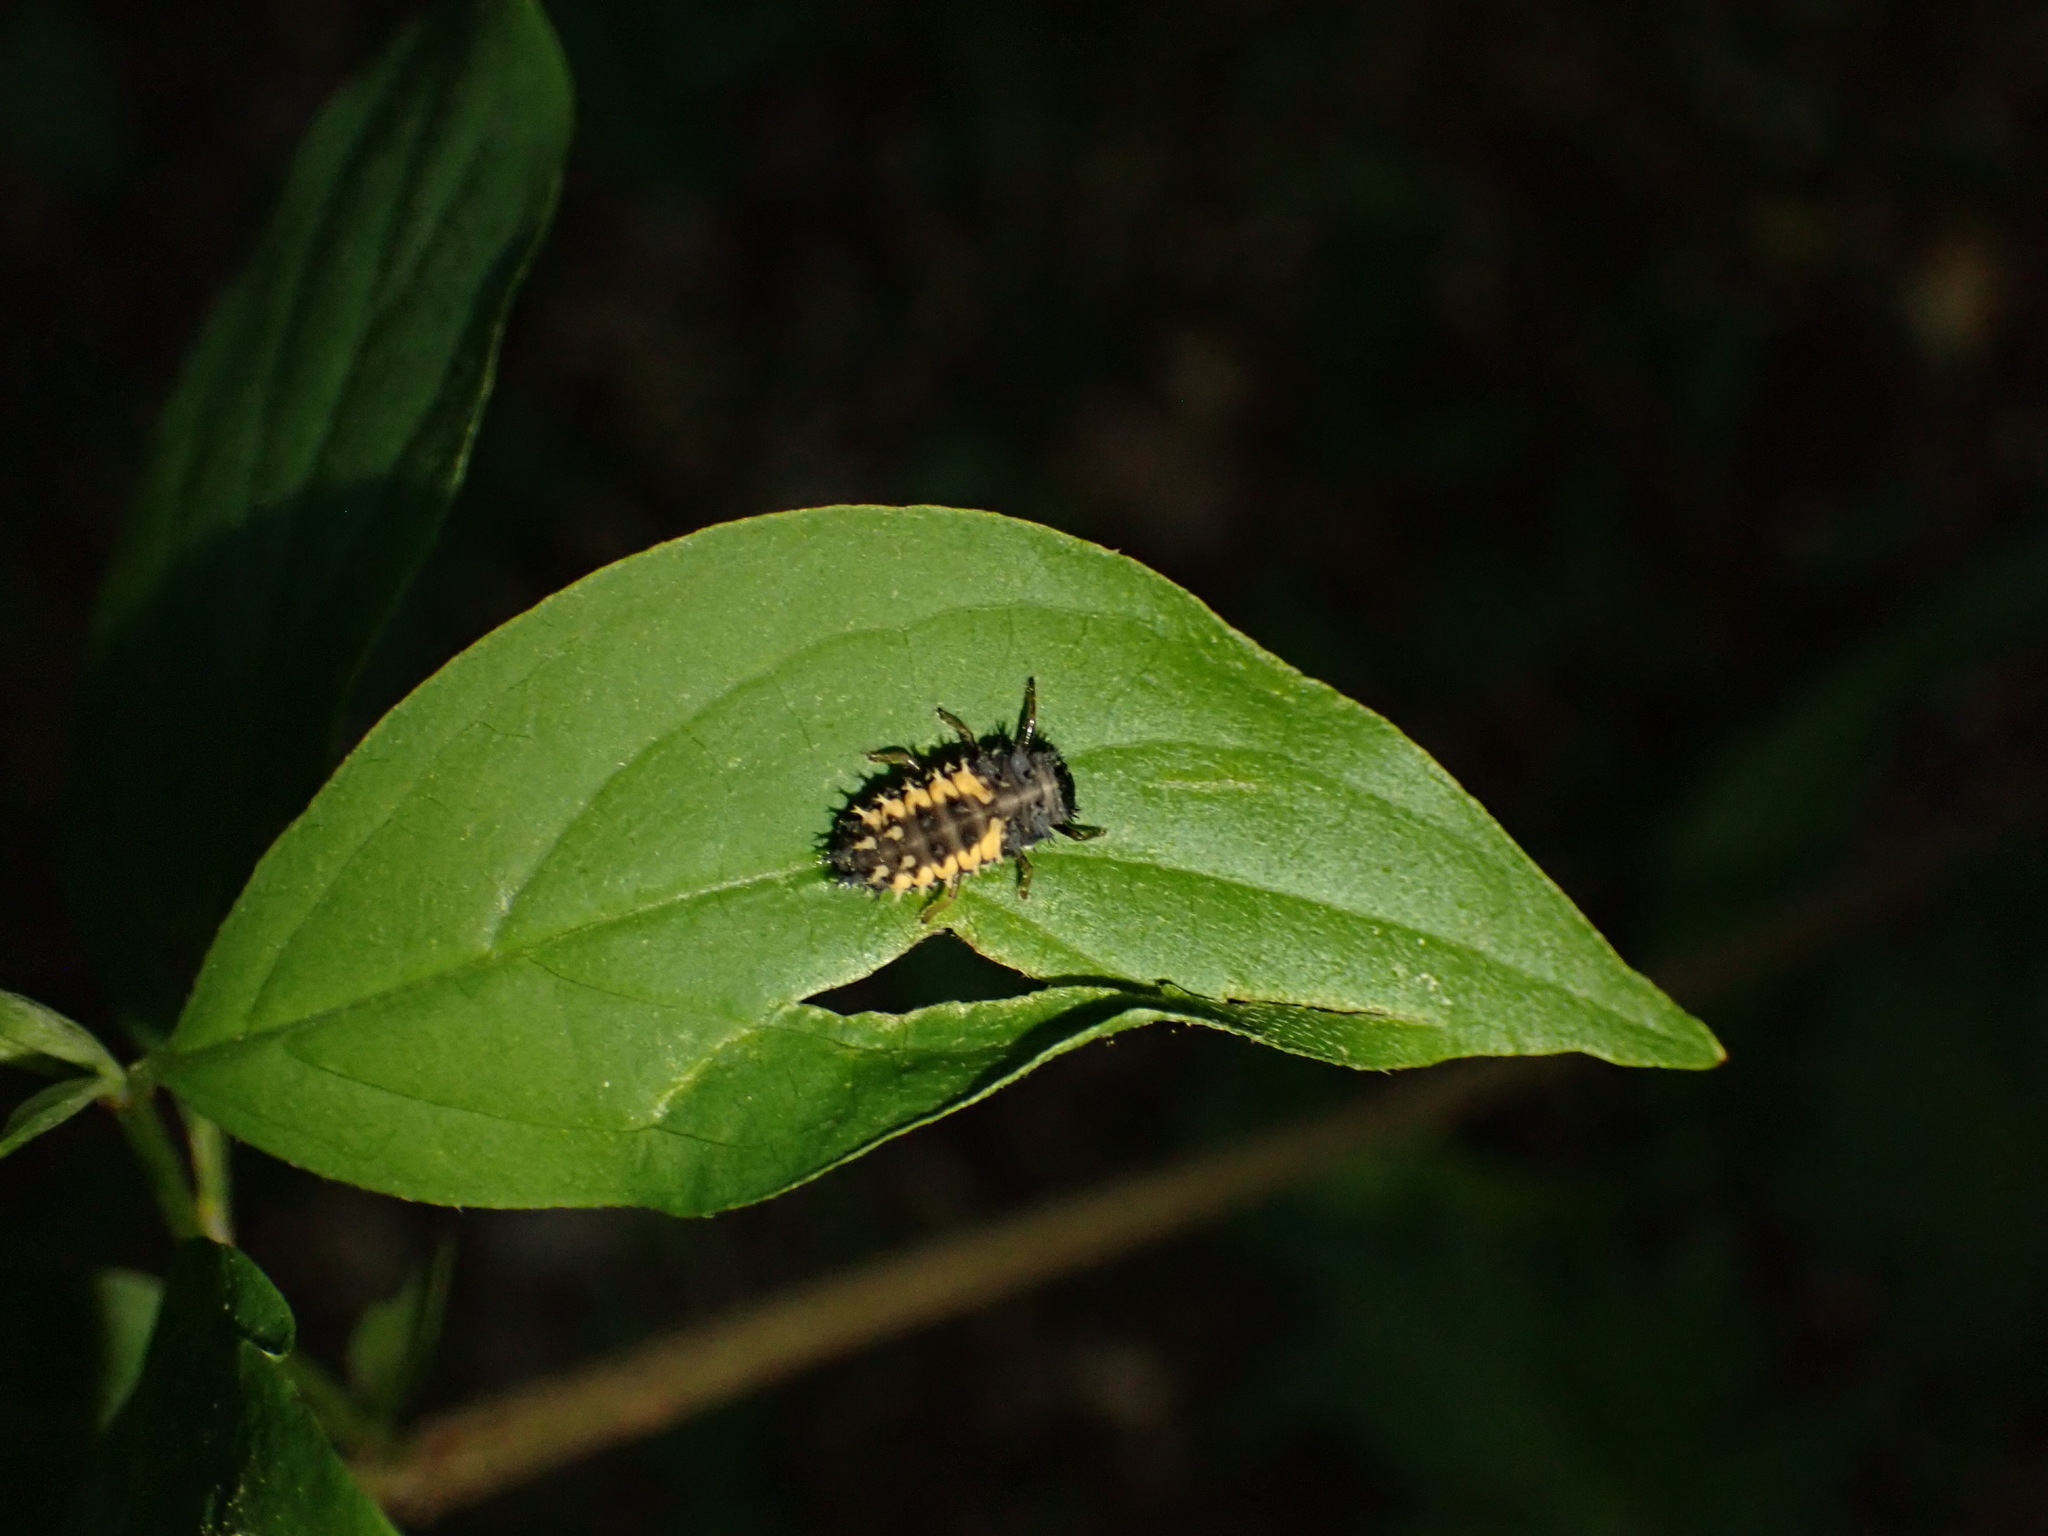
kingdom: Animalia
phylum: Arthropoda
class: Insecta
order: Coleoptera
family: Coccinellidae
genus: Harmonia
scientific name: Harmonia axyridis
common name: Harlequin ladybird
